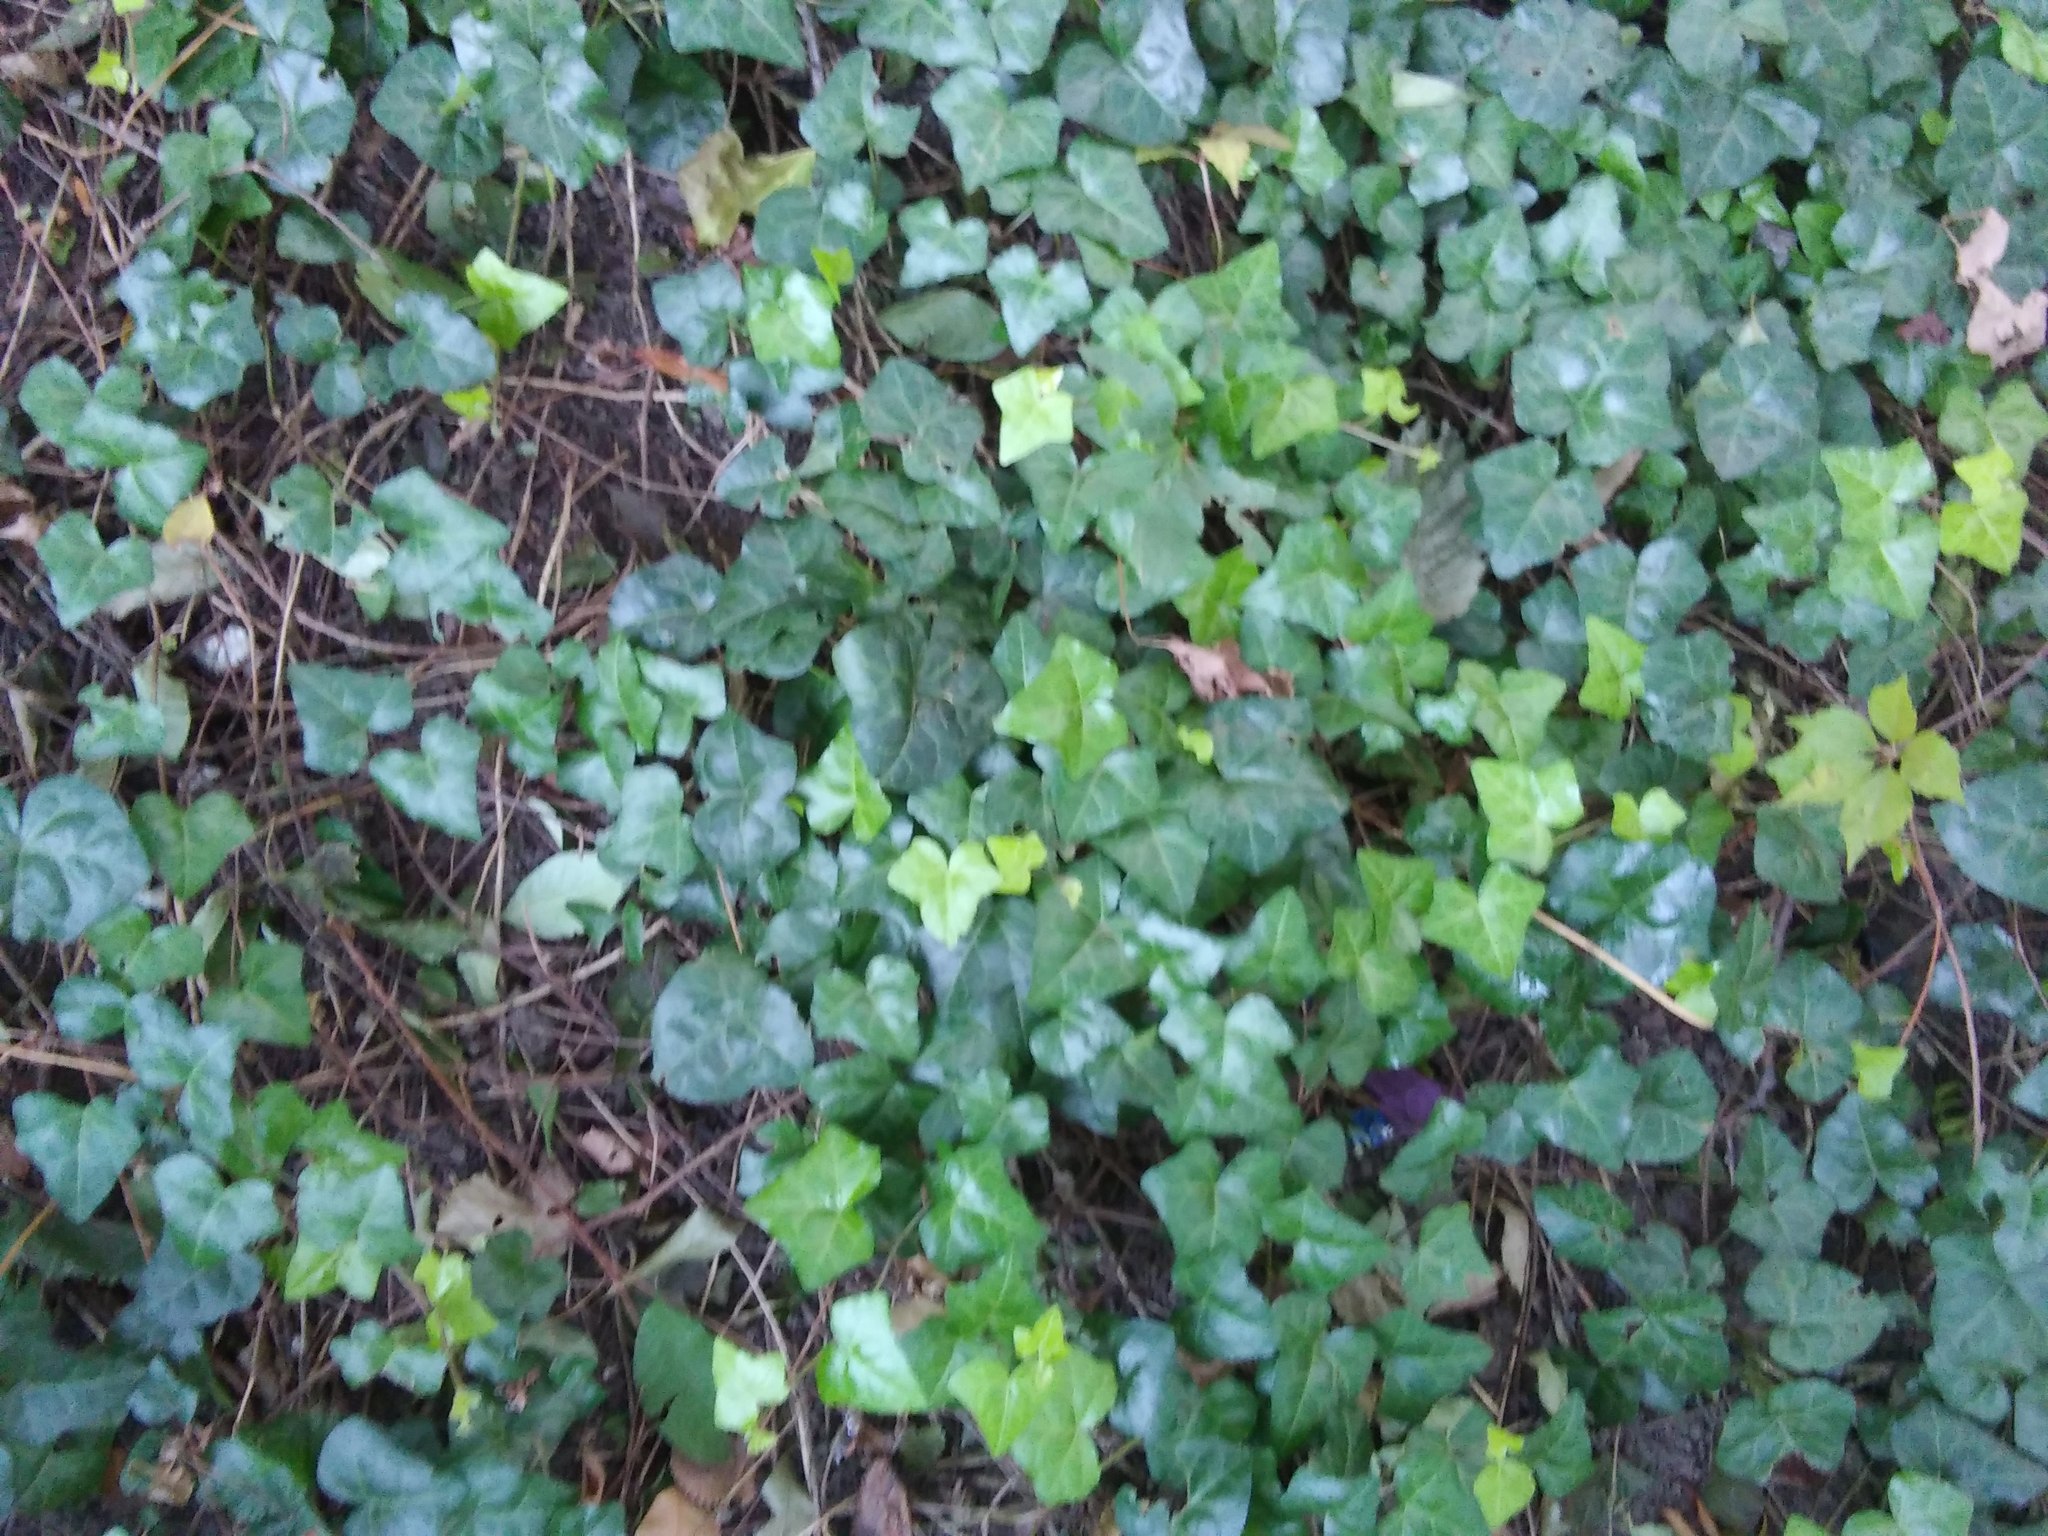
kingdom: Plantae
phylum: Tracheophyta
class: Magnoliopsida
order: Apiales
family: Araliaceae
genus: Hedera
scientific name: Hedera helix
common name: Ivy
